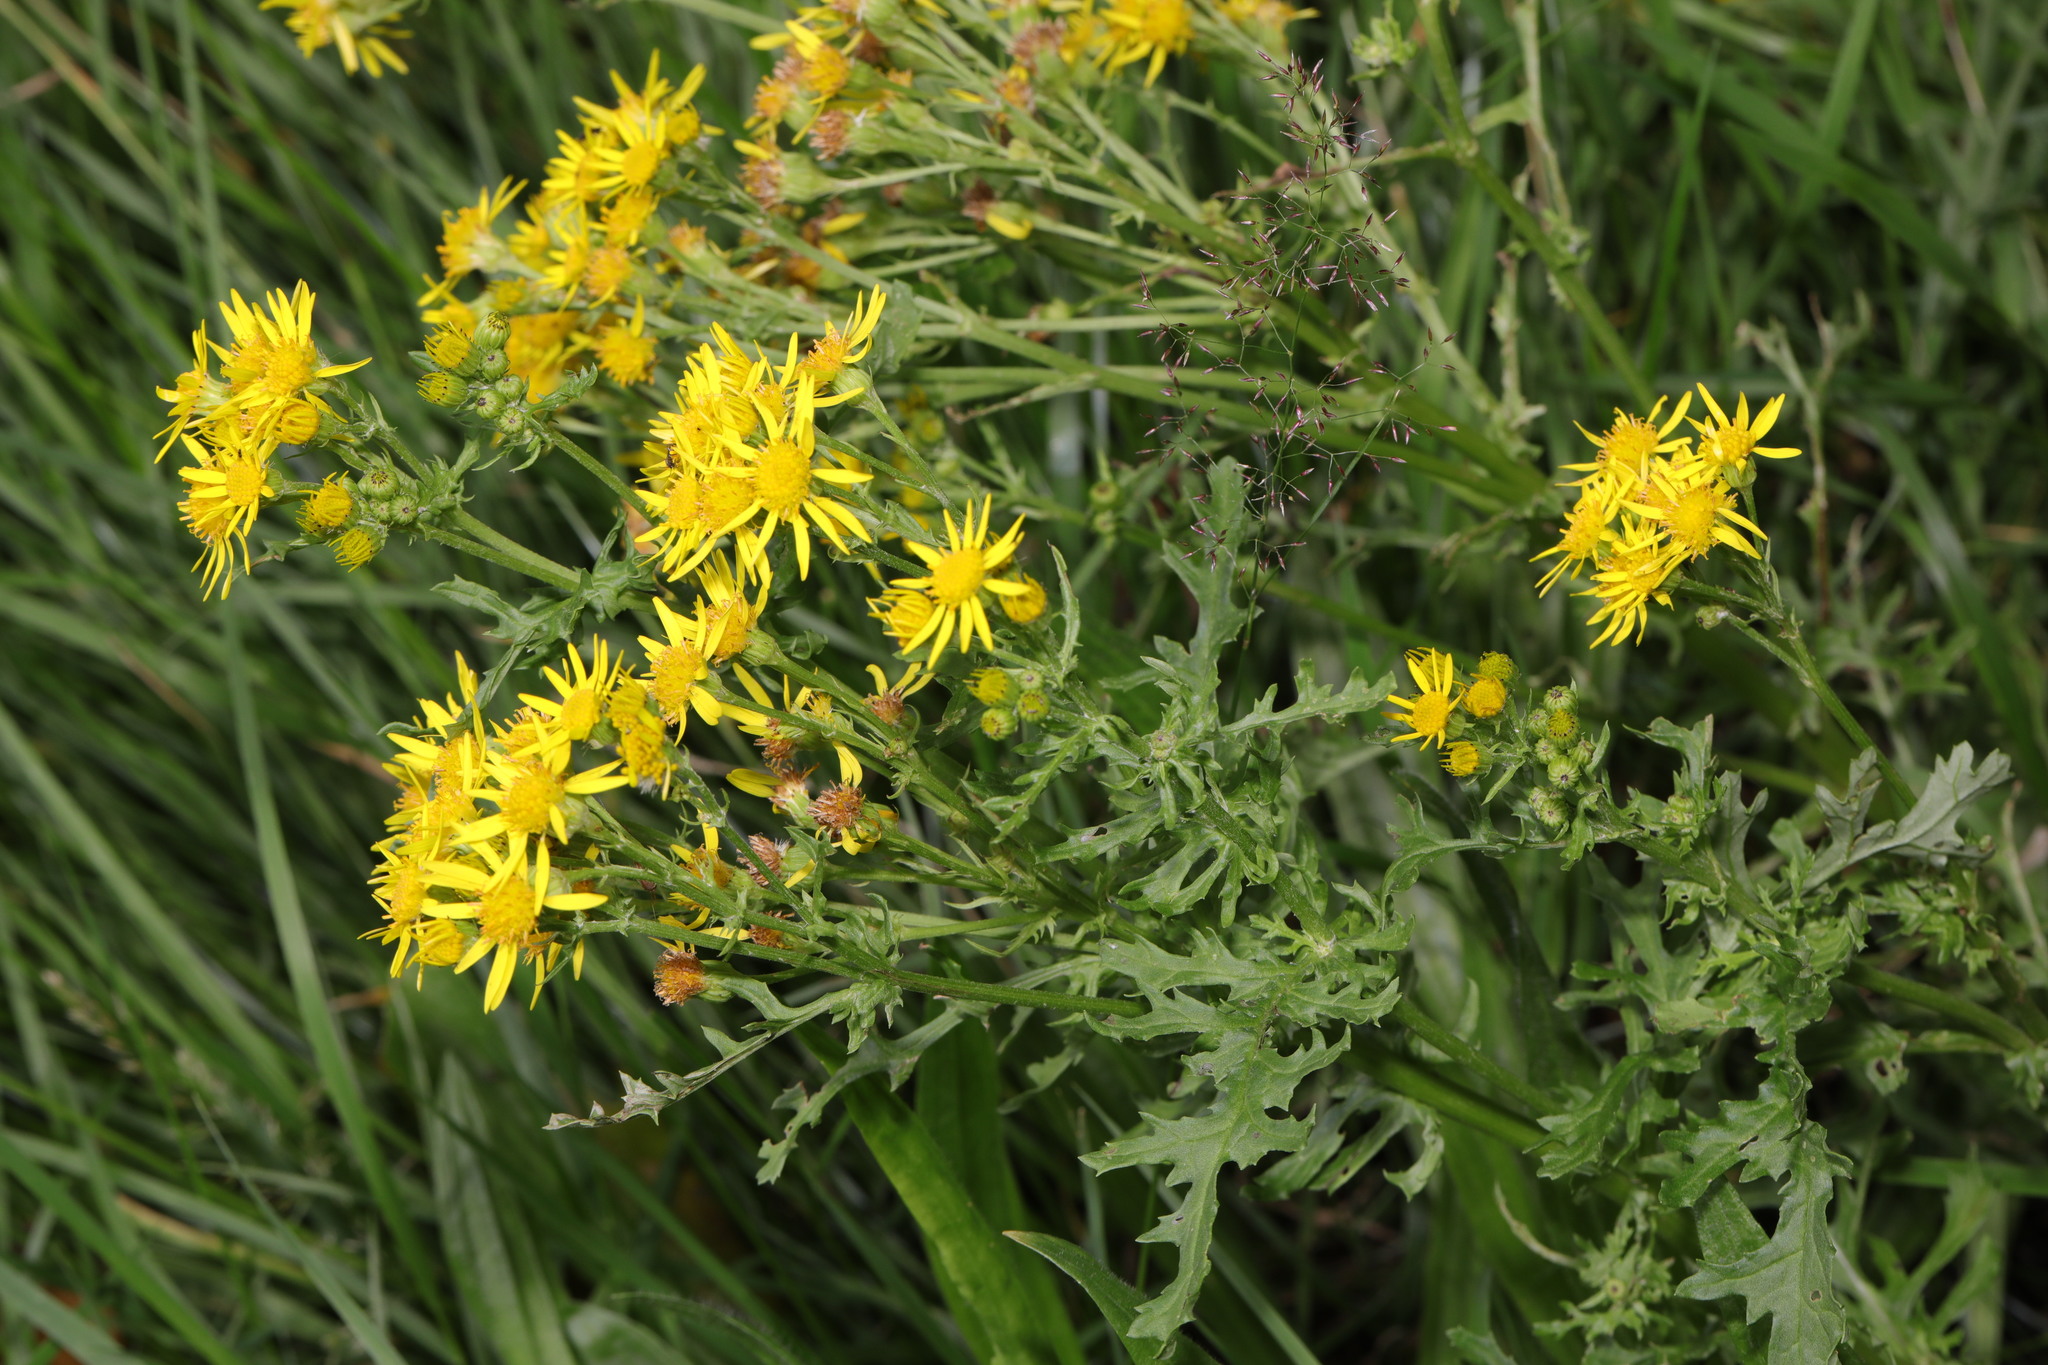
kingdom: Plantae
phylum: Tracheophyta
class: Magnoliopsida
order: Asterales
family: Asteraceae
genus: Jacobaea
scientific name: Jacobaea vulgaris
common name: Stinking willie
